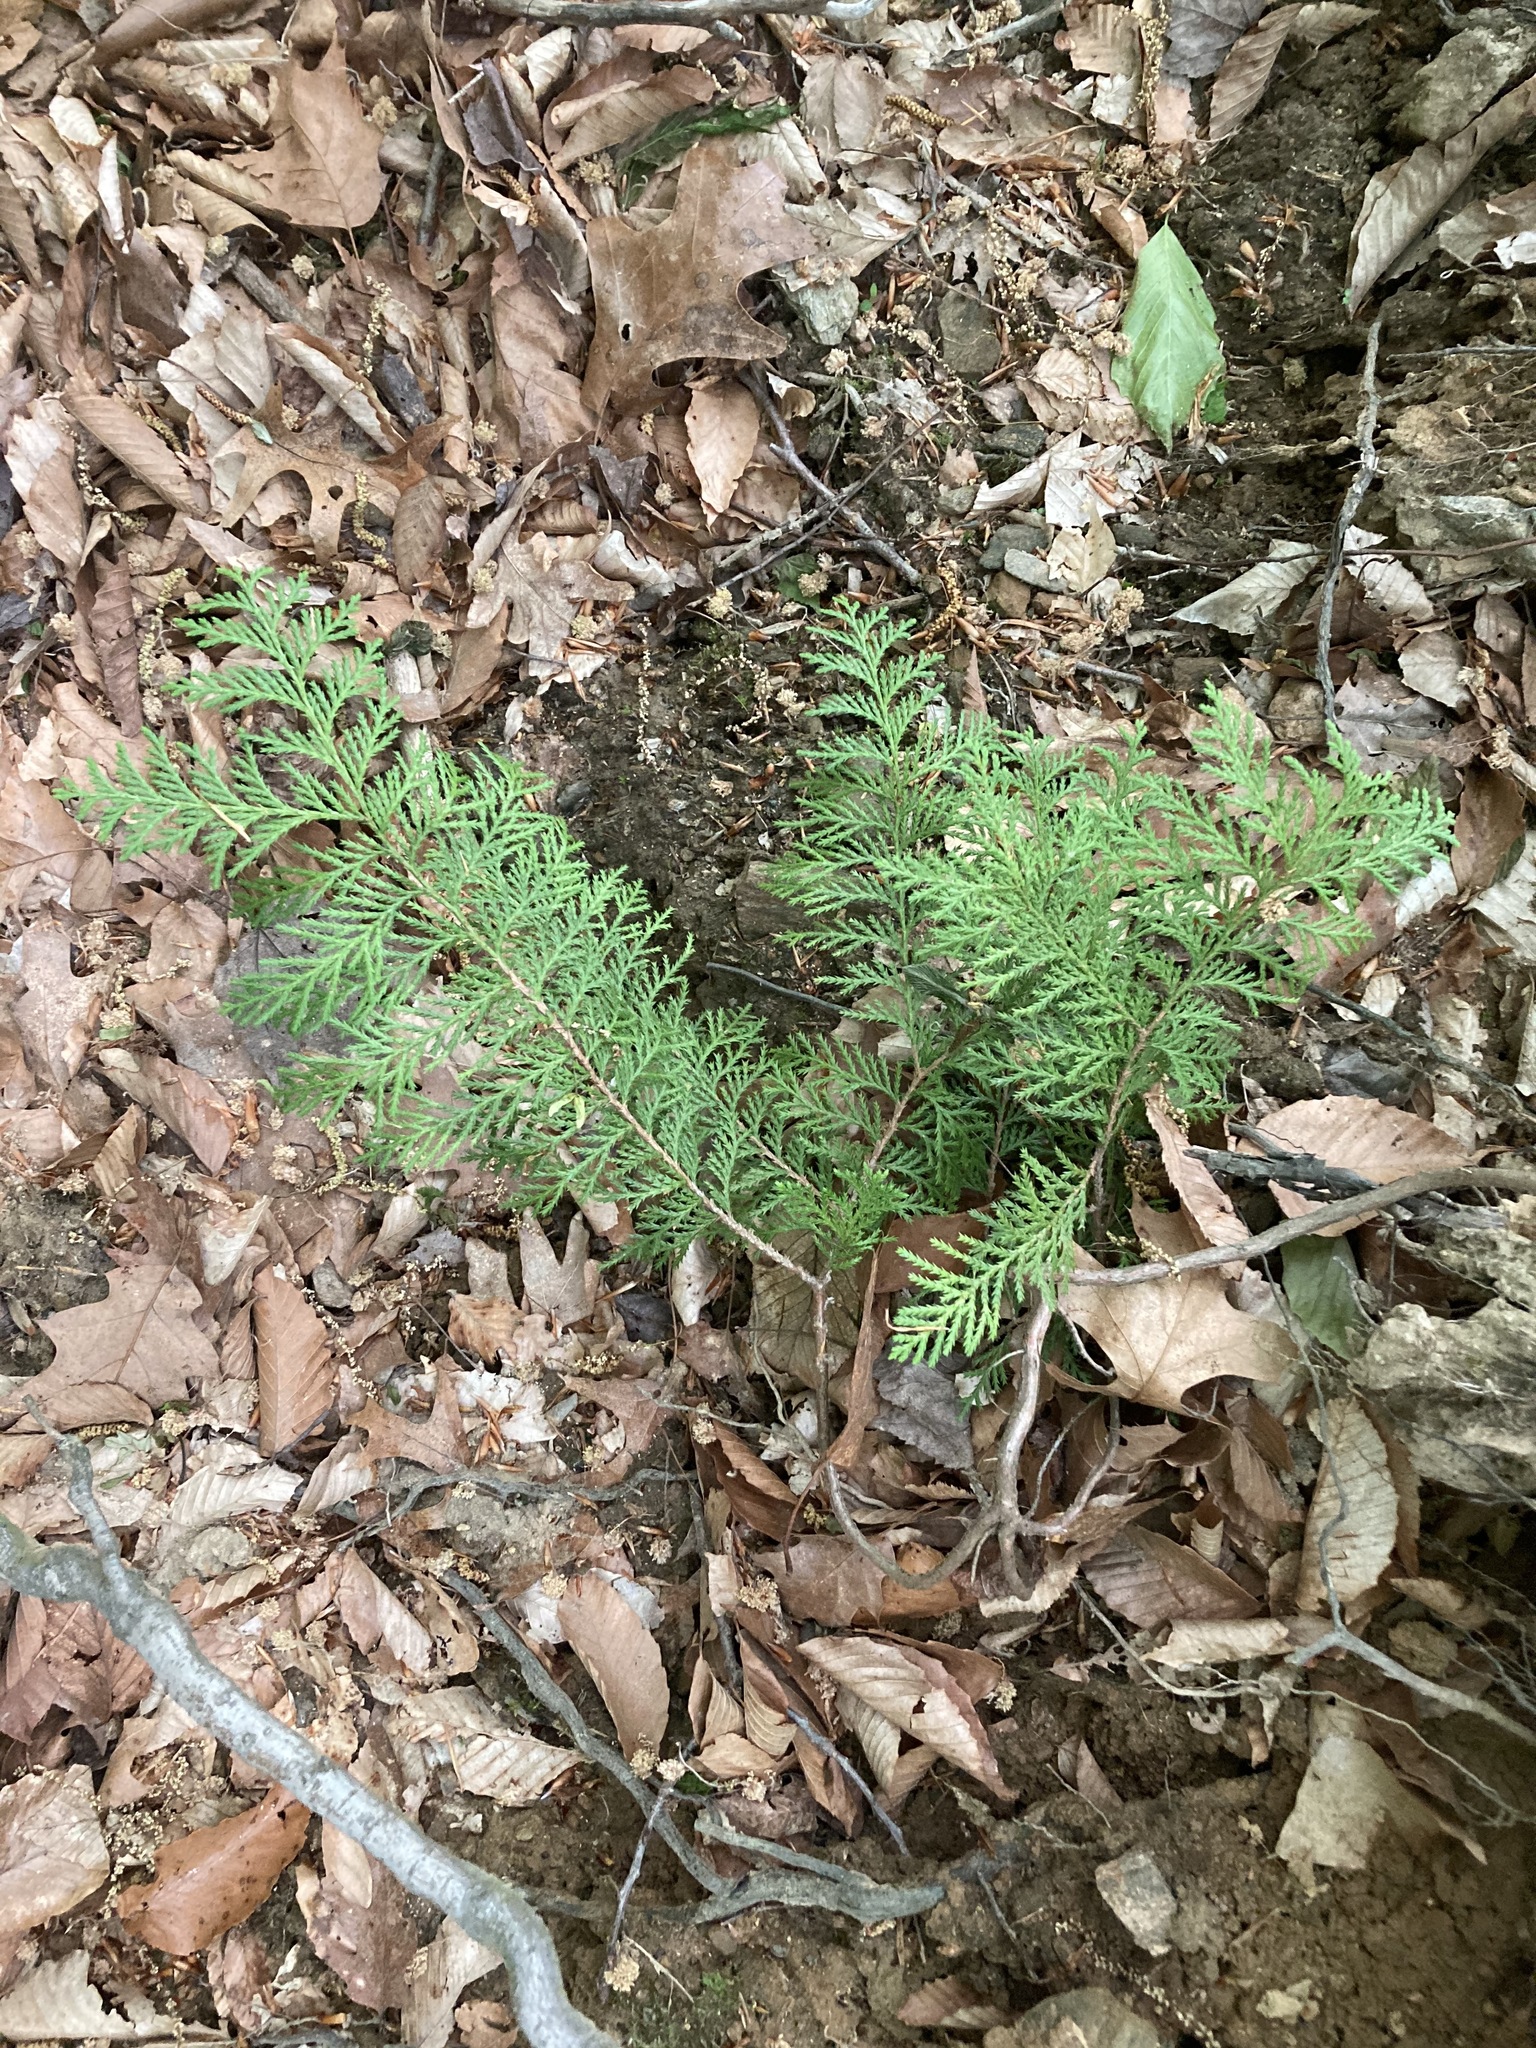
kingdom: Plantae
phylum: Tracheophyta
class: Pinopsida
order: Pinales
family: Cupressaceae
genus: Thuja
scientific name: Thuja occidentalis
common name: Northern white-cedar
